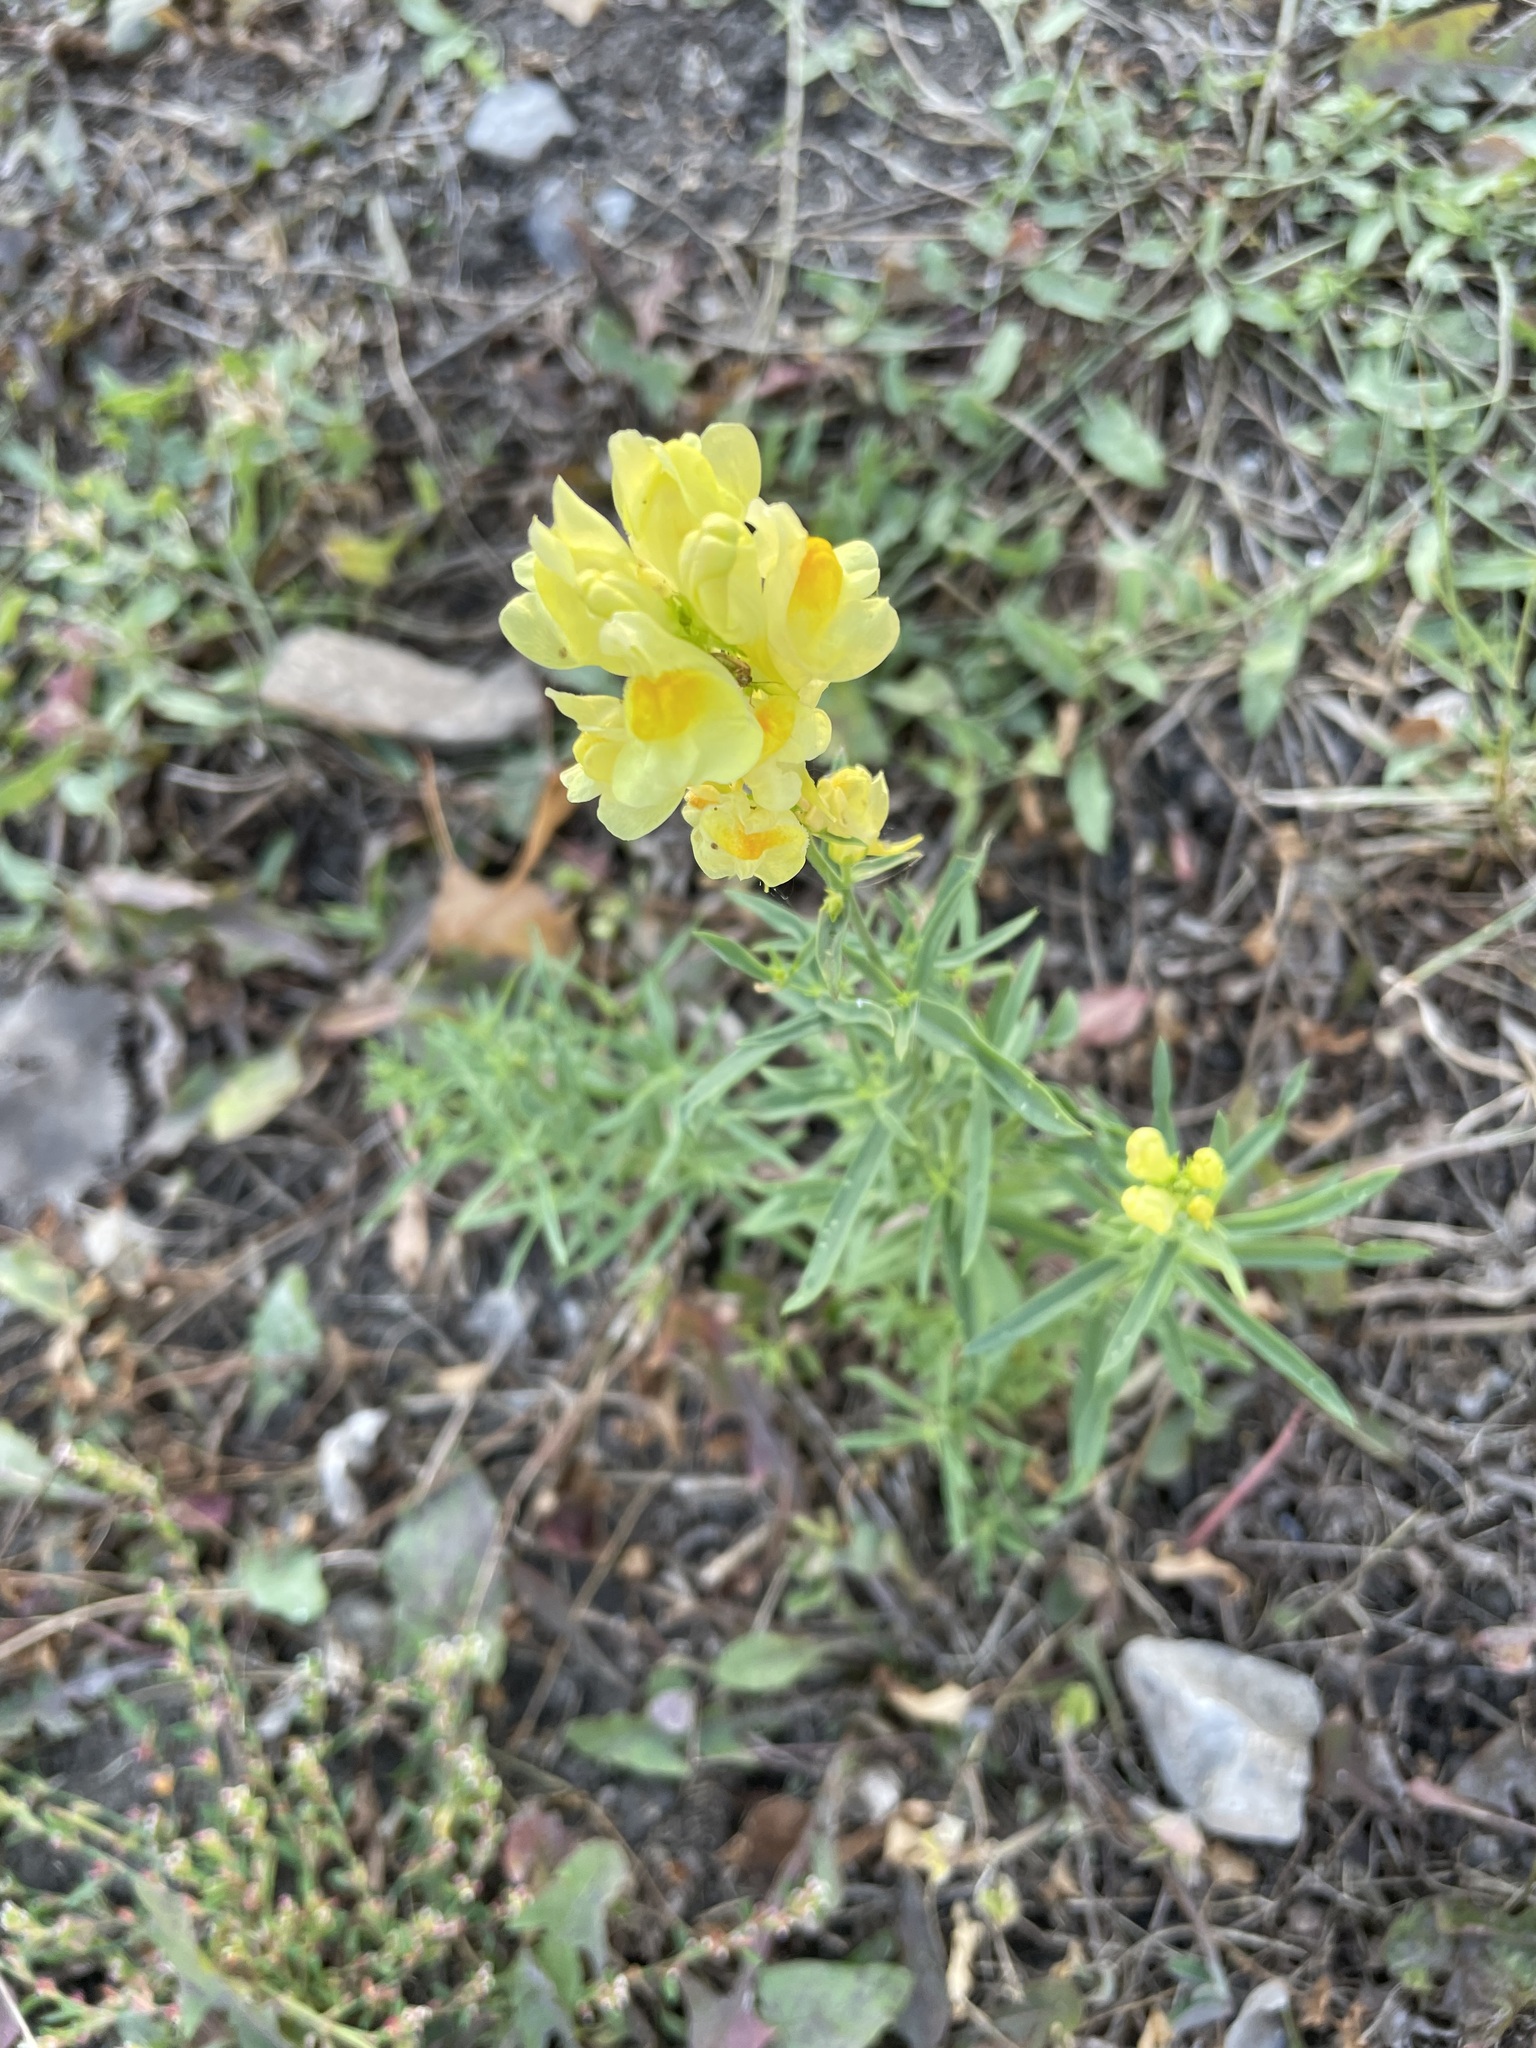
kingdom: Plantae
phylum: Tracheophyta
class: Magnoliopsida
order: Lamiales
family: Plantaginaceae
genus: Linaria
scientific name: Linaria vulgaris
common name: Butter and eggs
